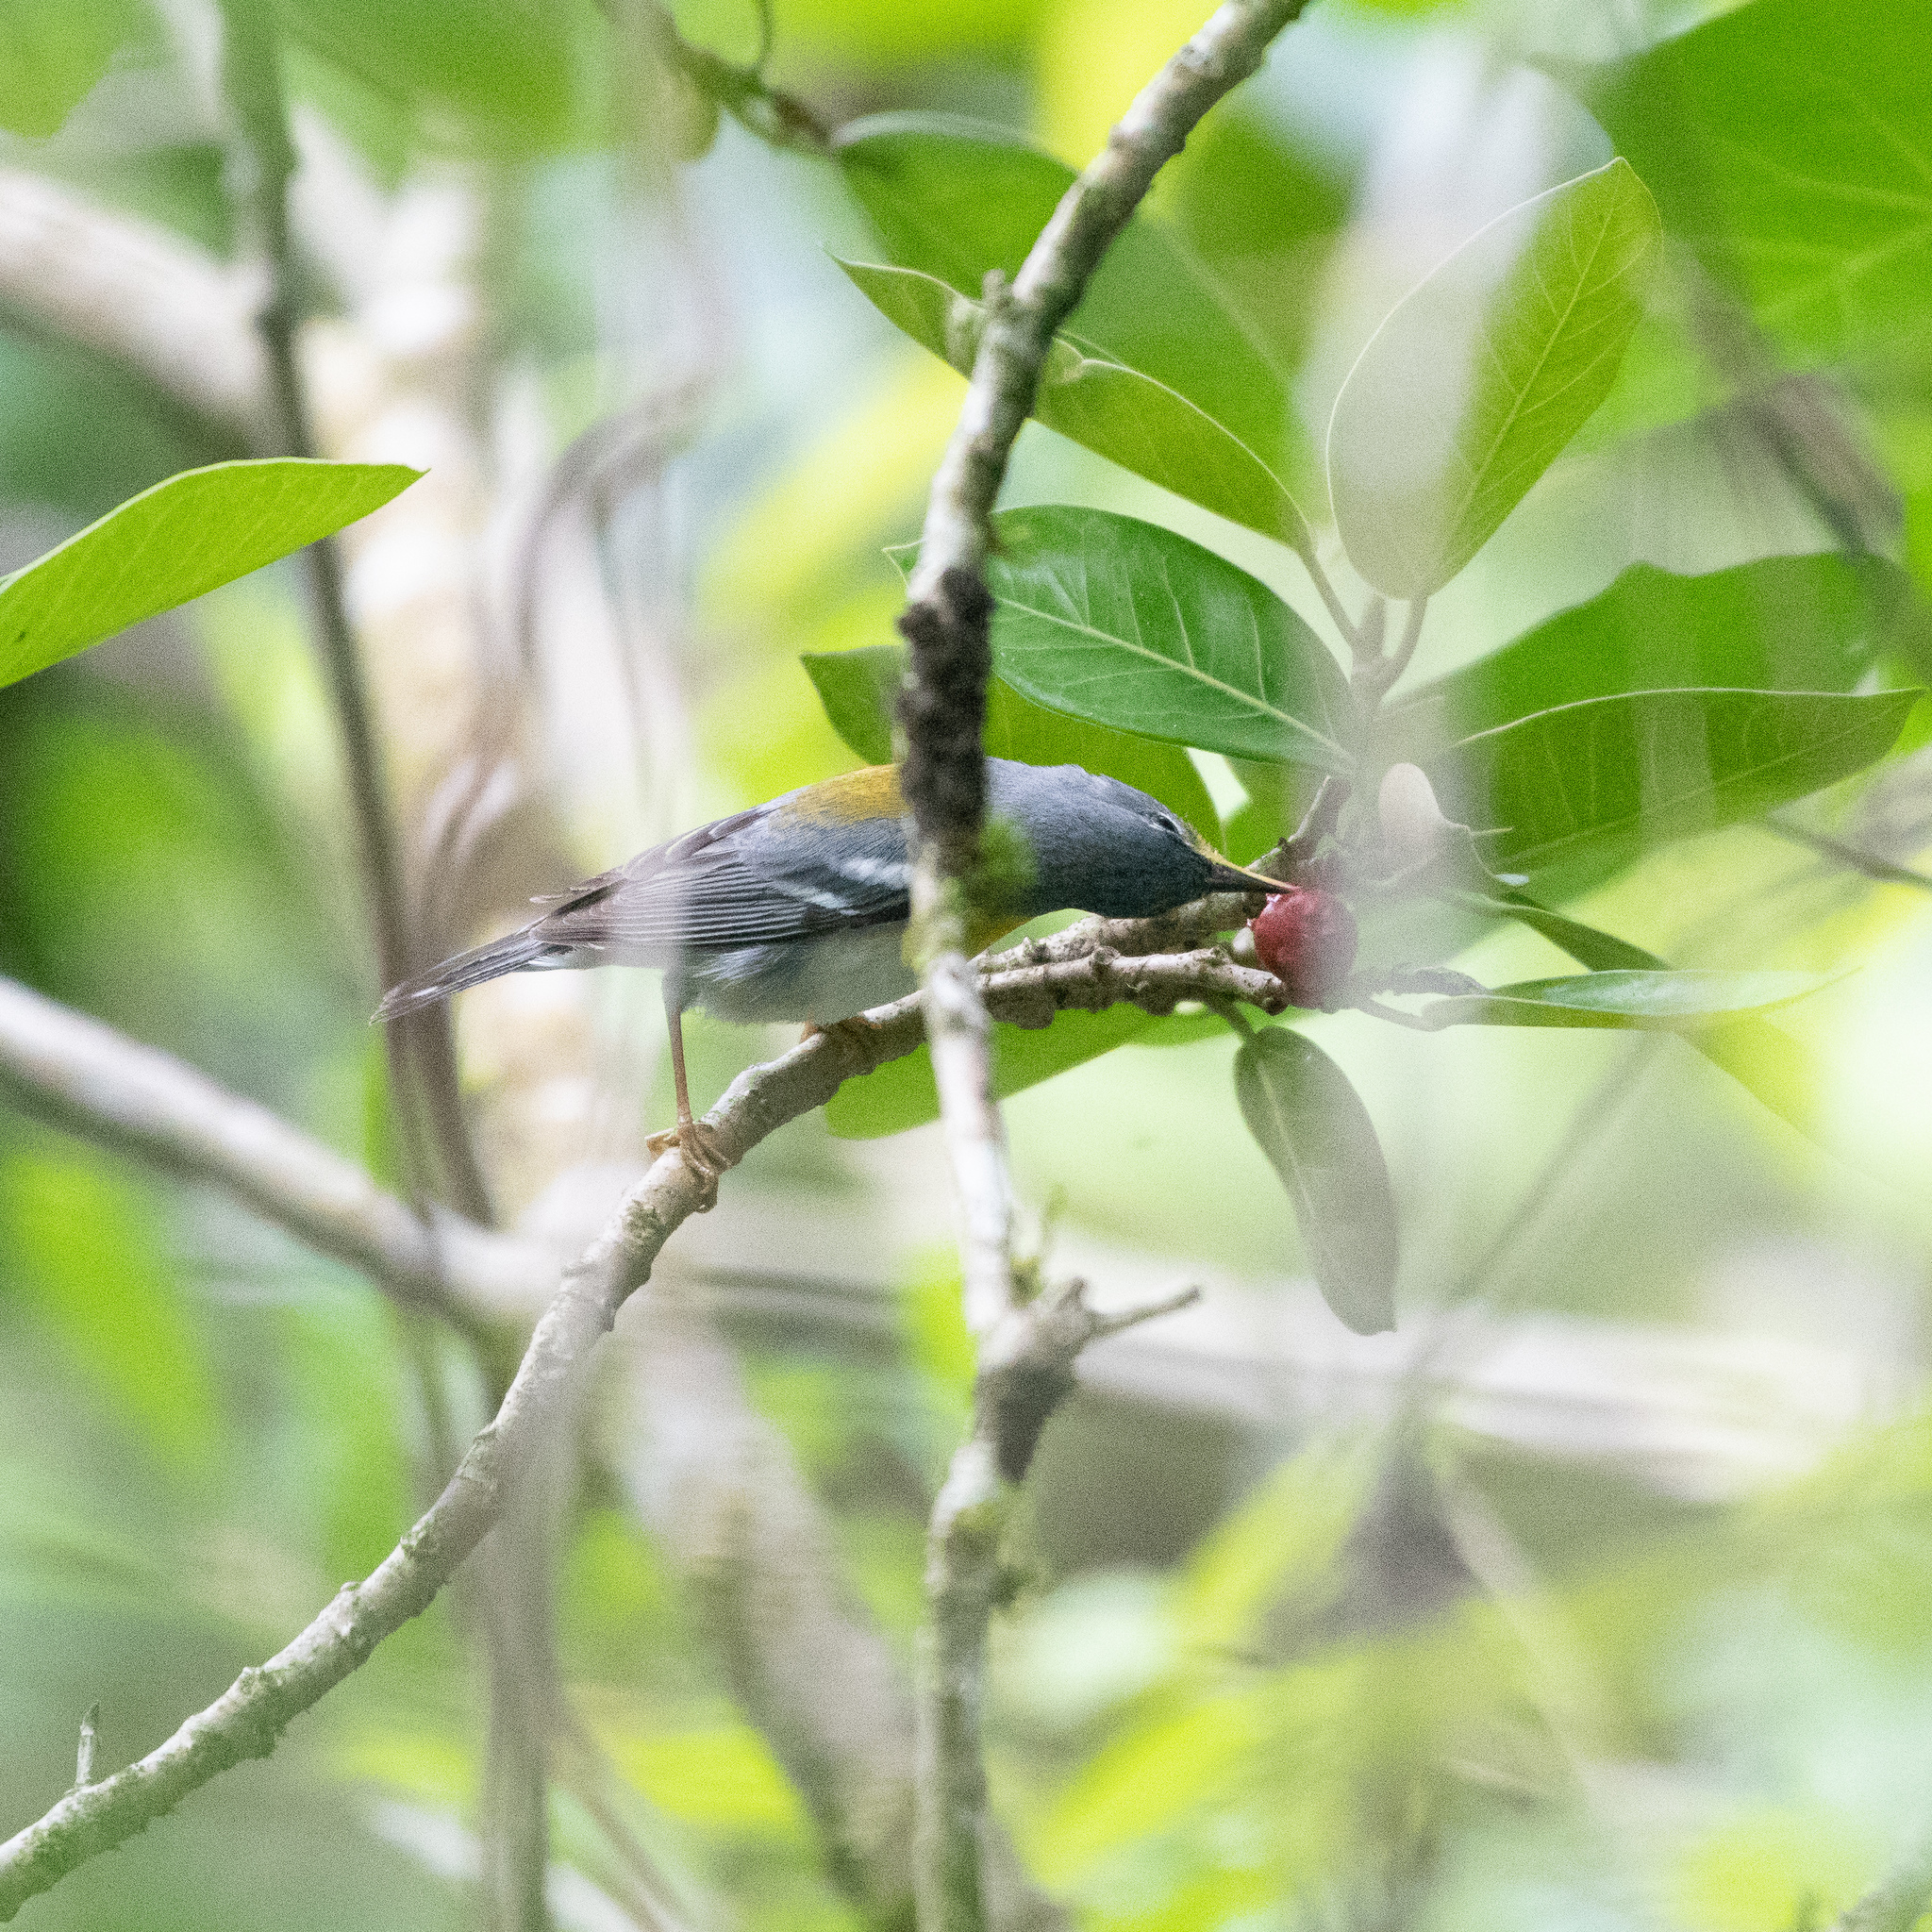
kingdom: Animalia
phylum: Chordata
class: Aves
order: Passeriformes
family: Parulidae
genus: Setophaga
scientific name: Setophaga americana
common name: Northern parula
